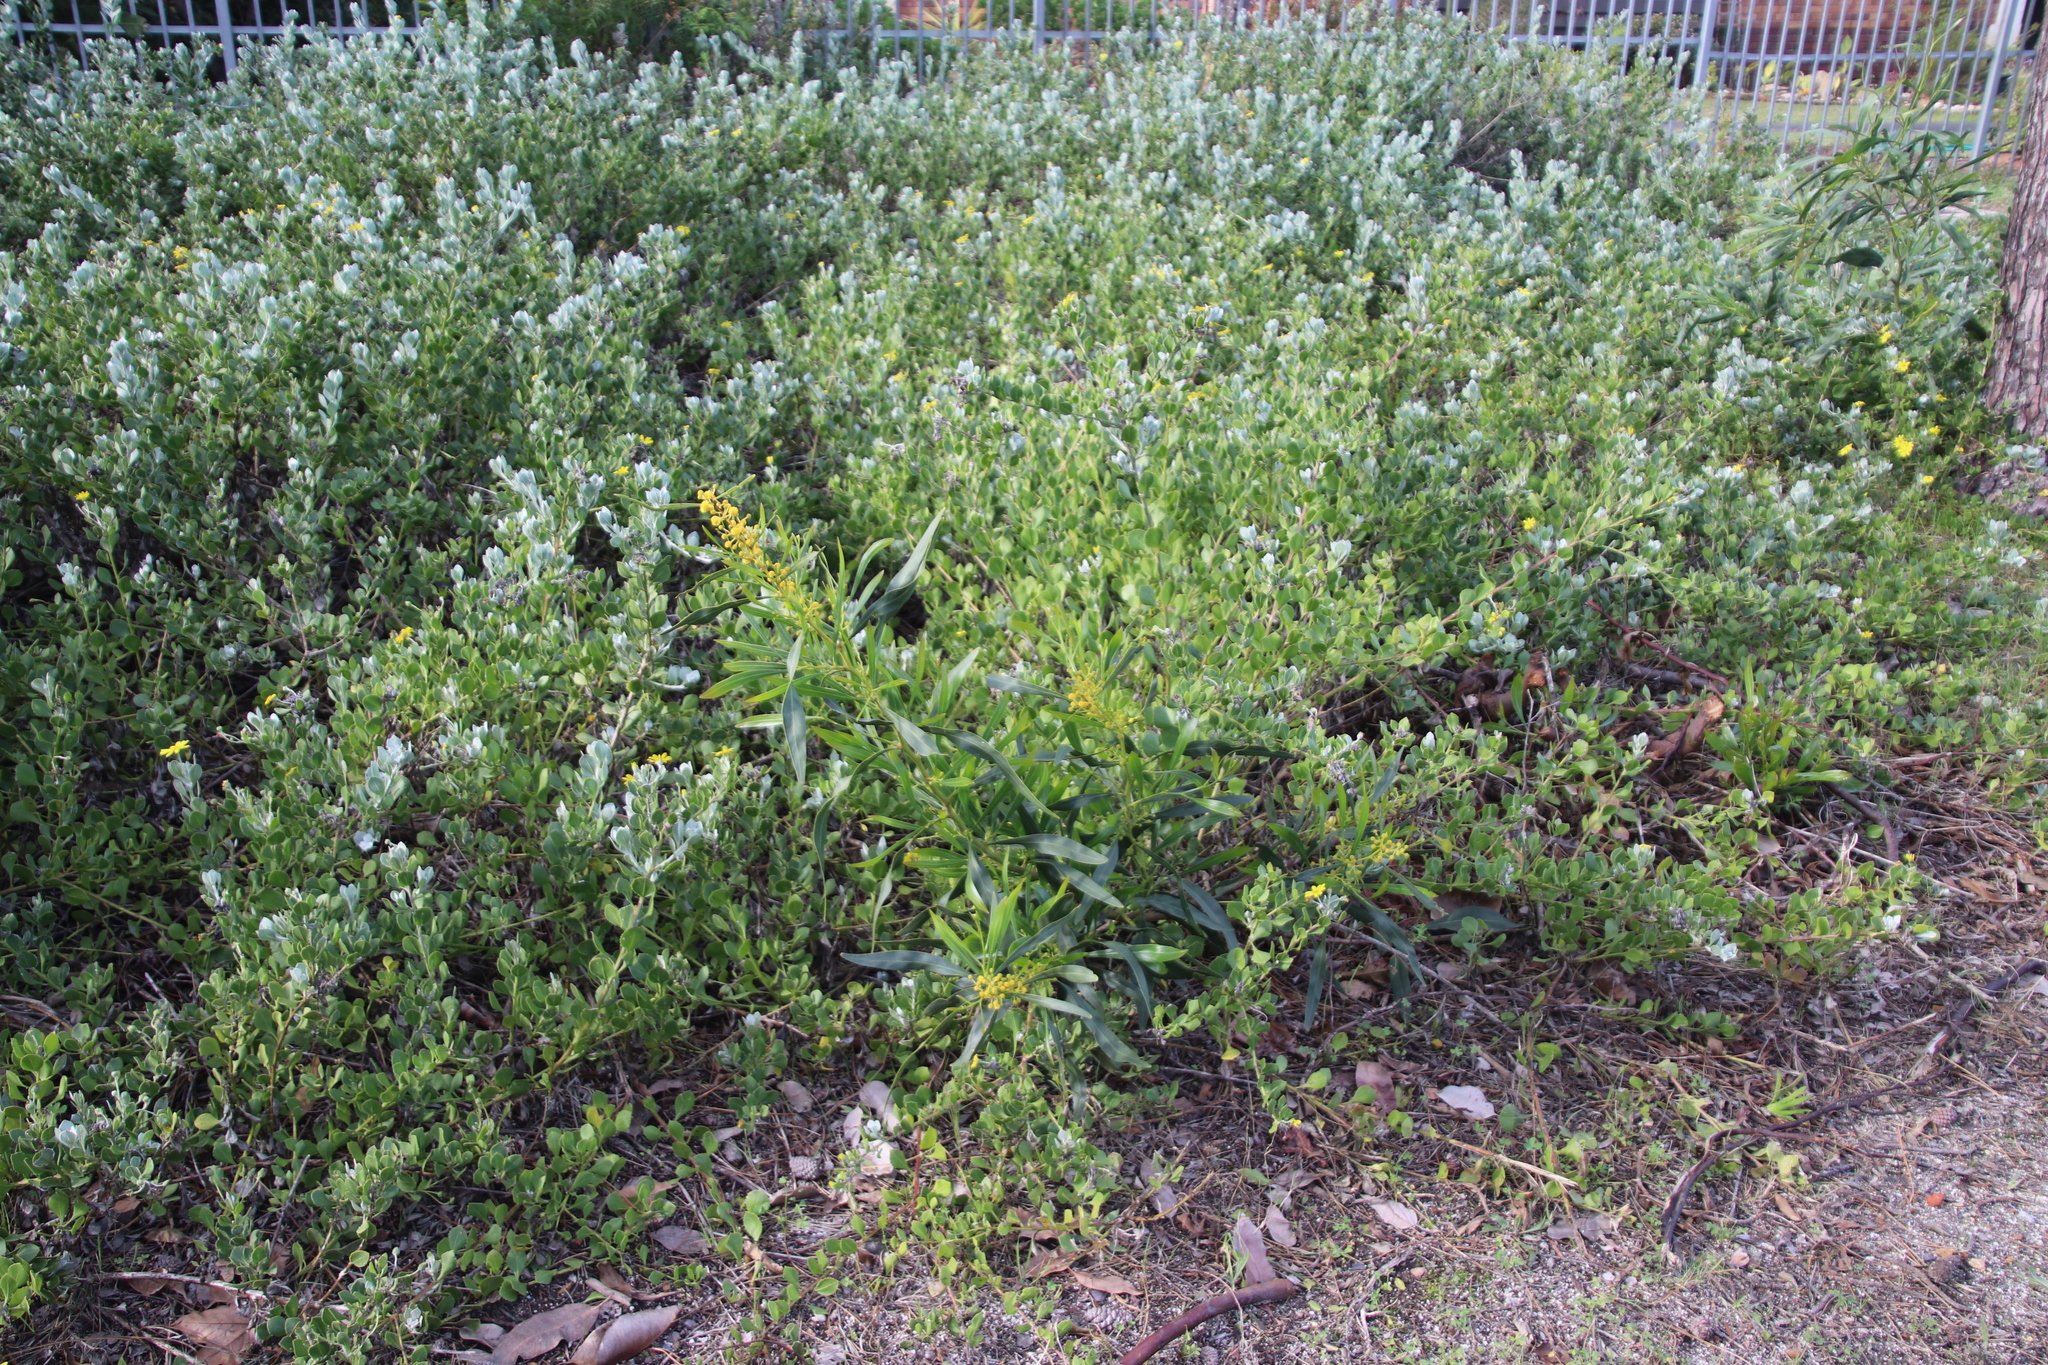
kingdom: Plantae
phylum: Tracheophyta
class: Magnoliopsida
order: Fabales
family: Fabaceae
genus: Acacia
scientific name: Acacia saligna
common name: Orange wattle
